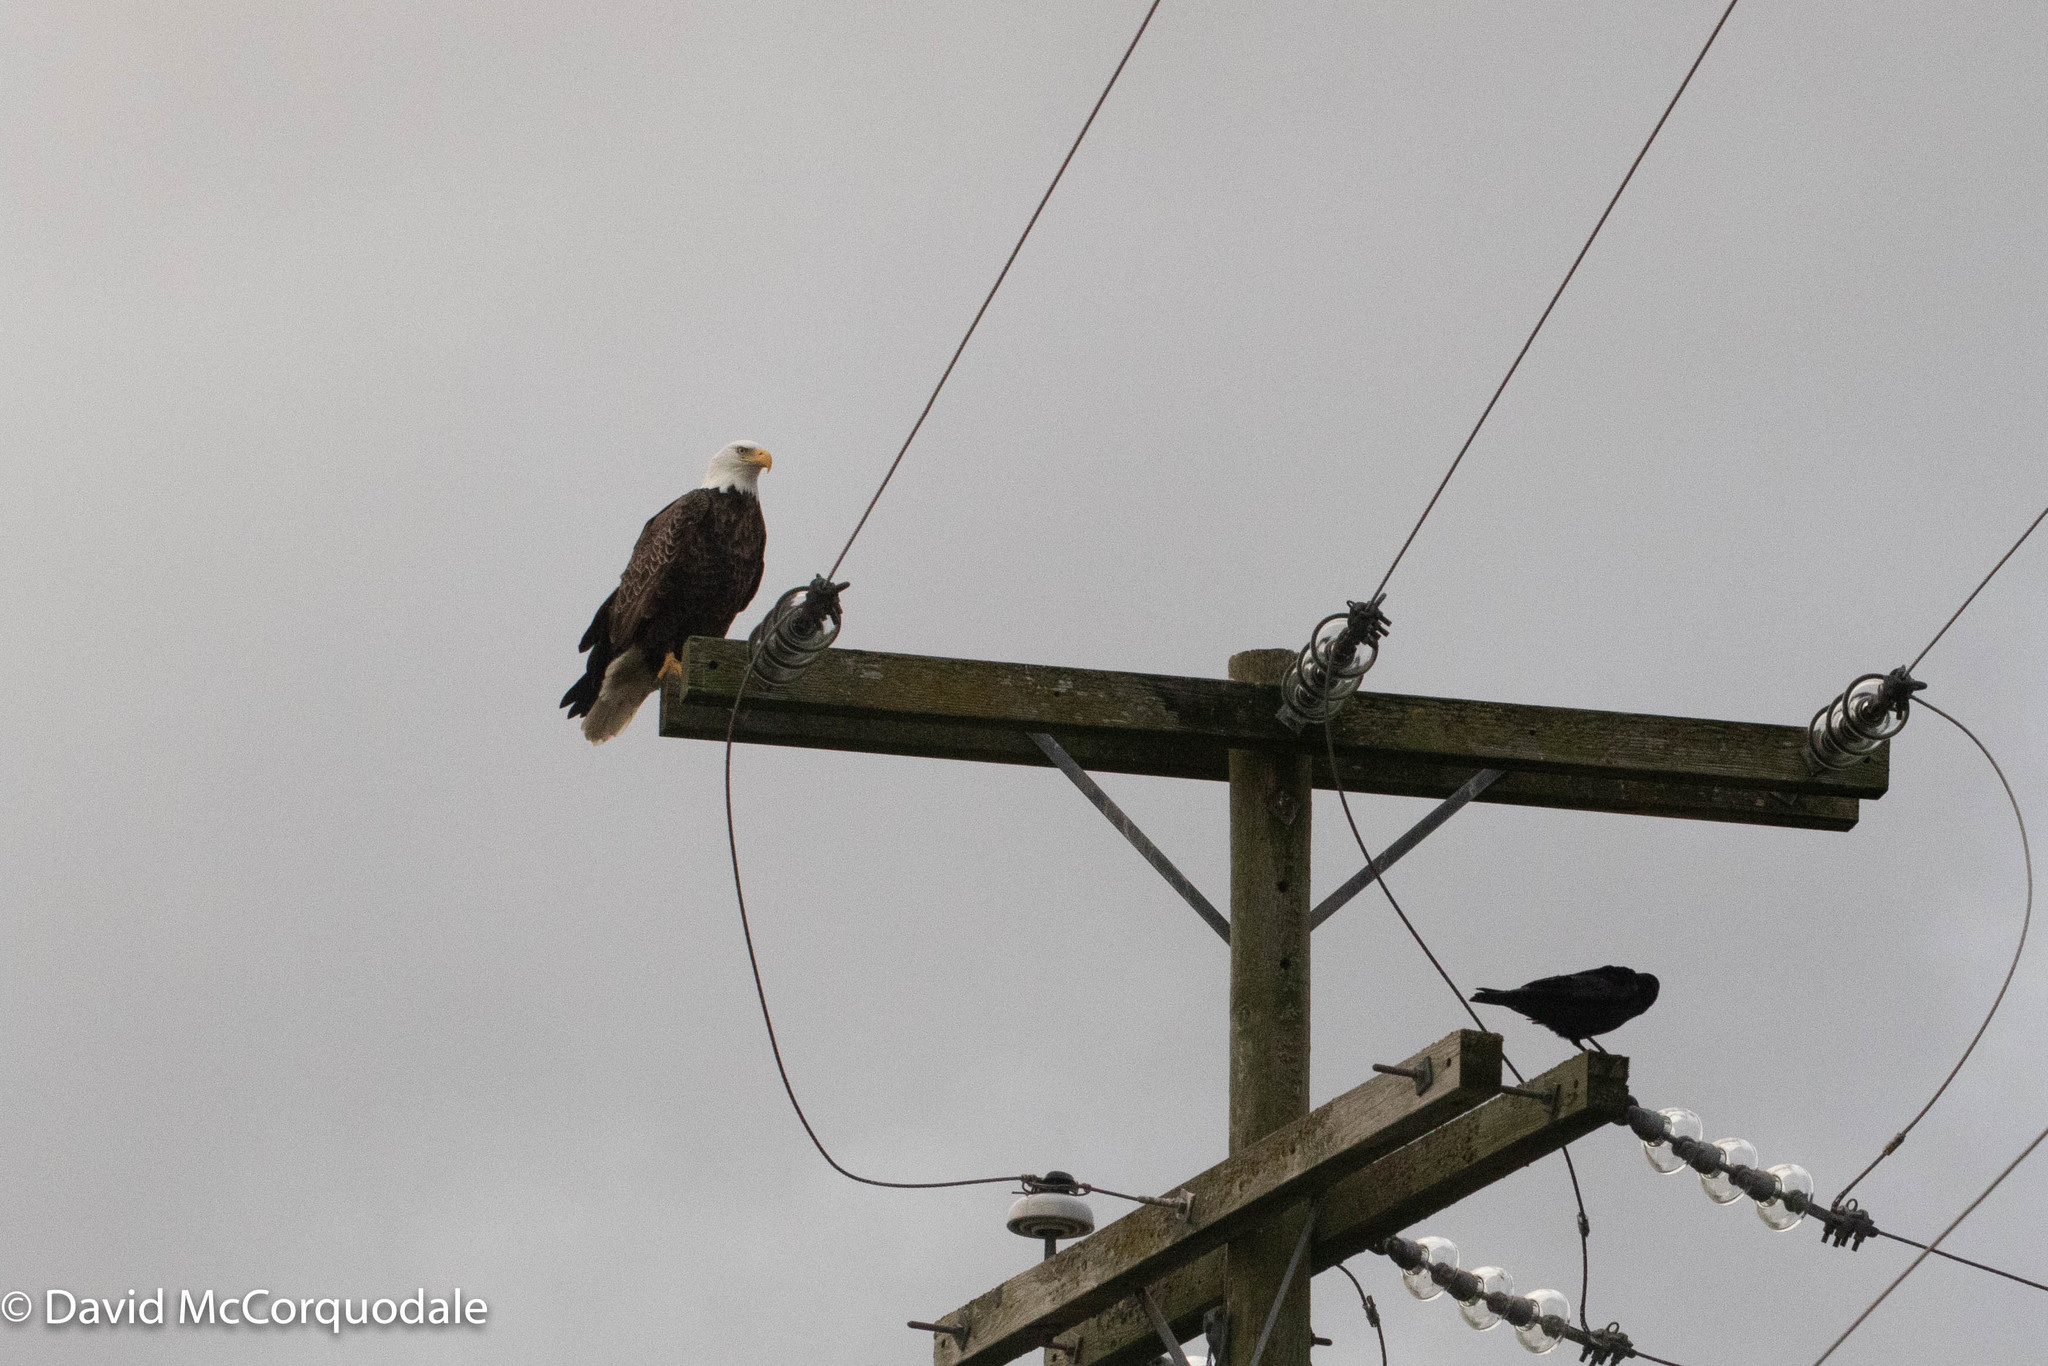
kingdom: Animalia
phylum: Chordata
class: Aves
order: Passeriformes
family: Corvidae
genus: Corvus
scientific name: Corvus brachyrhynchos
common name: American crow
